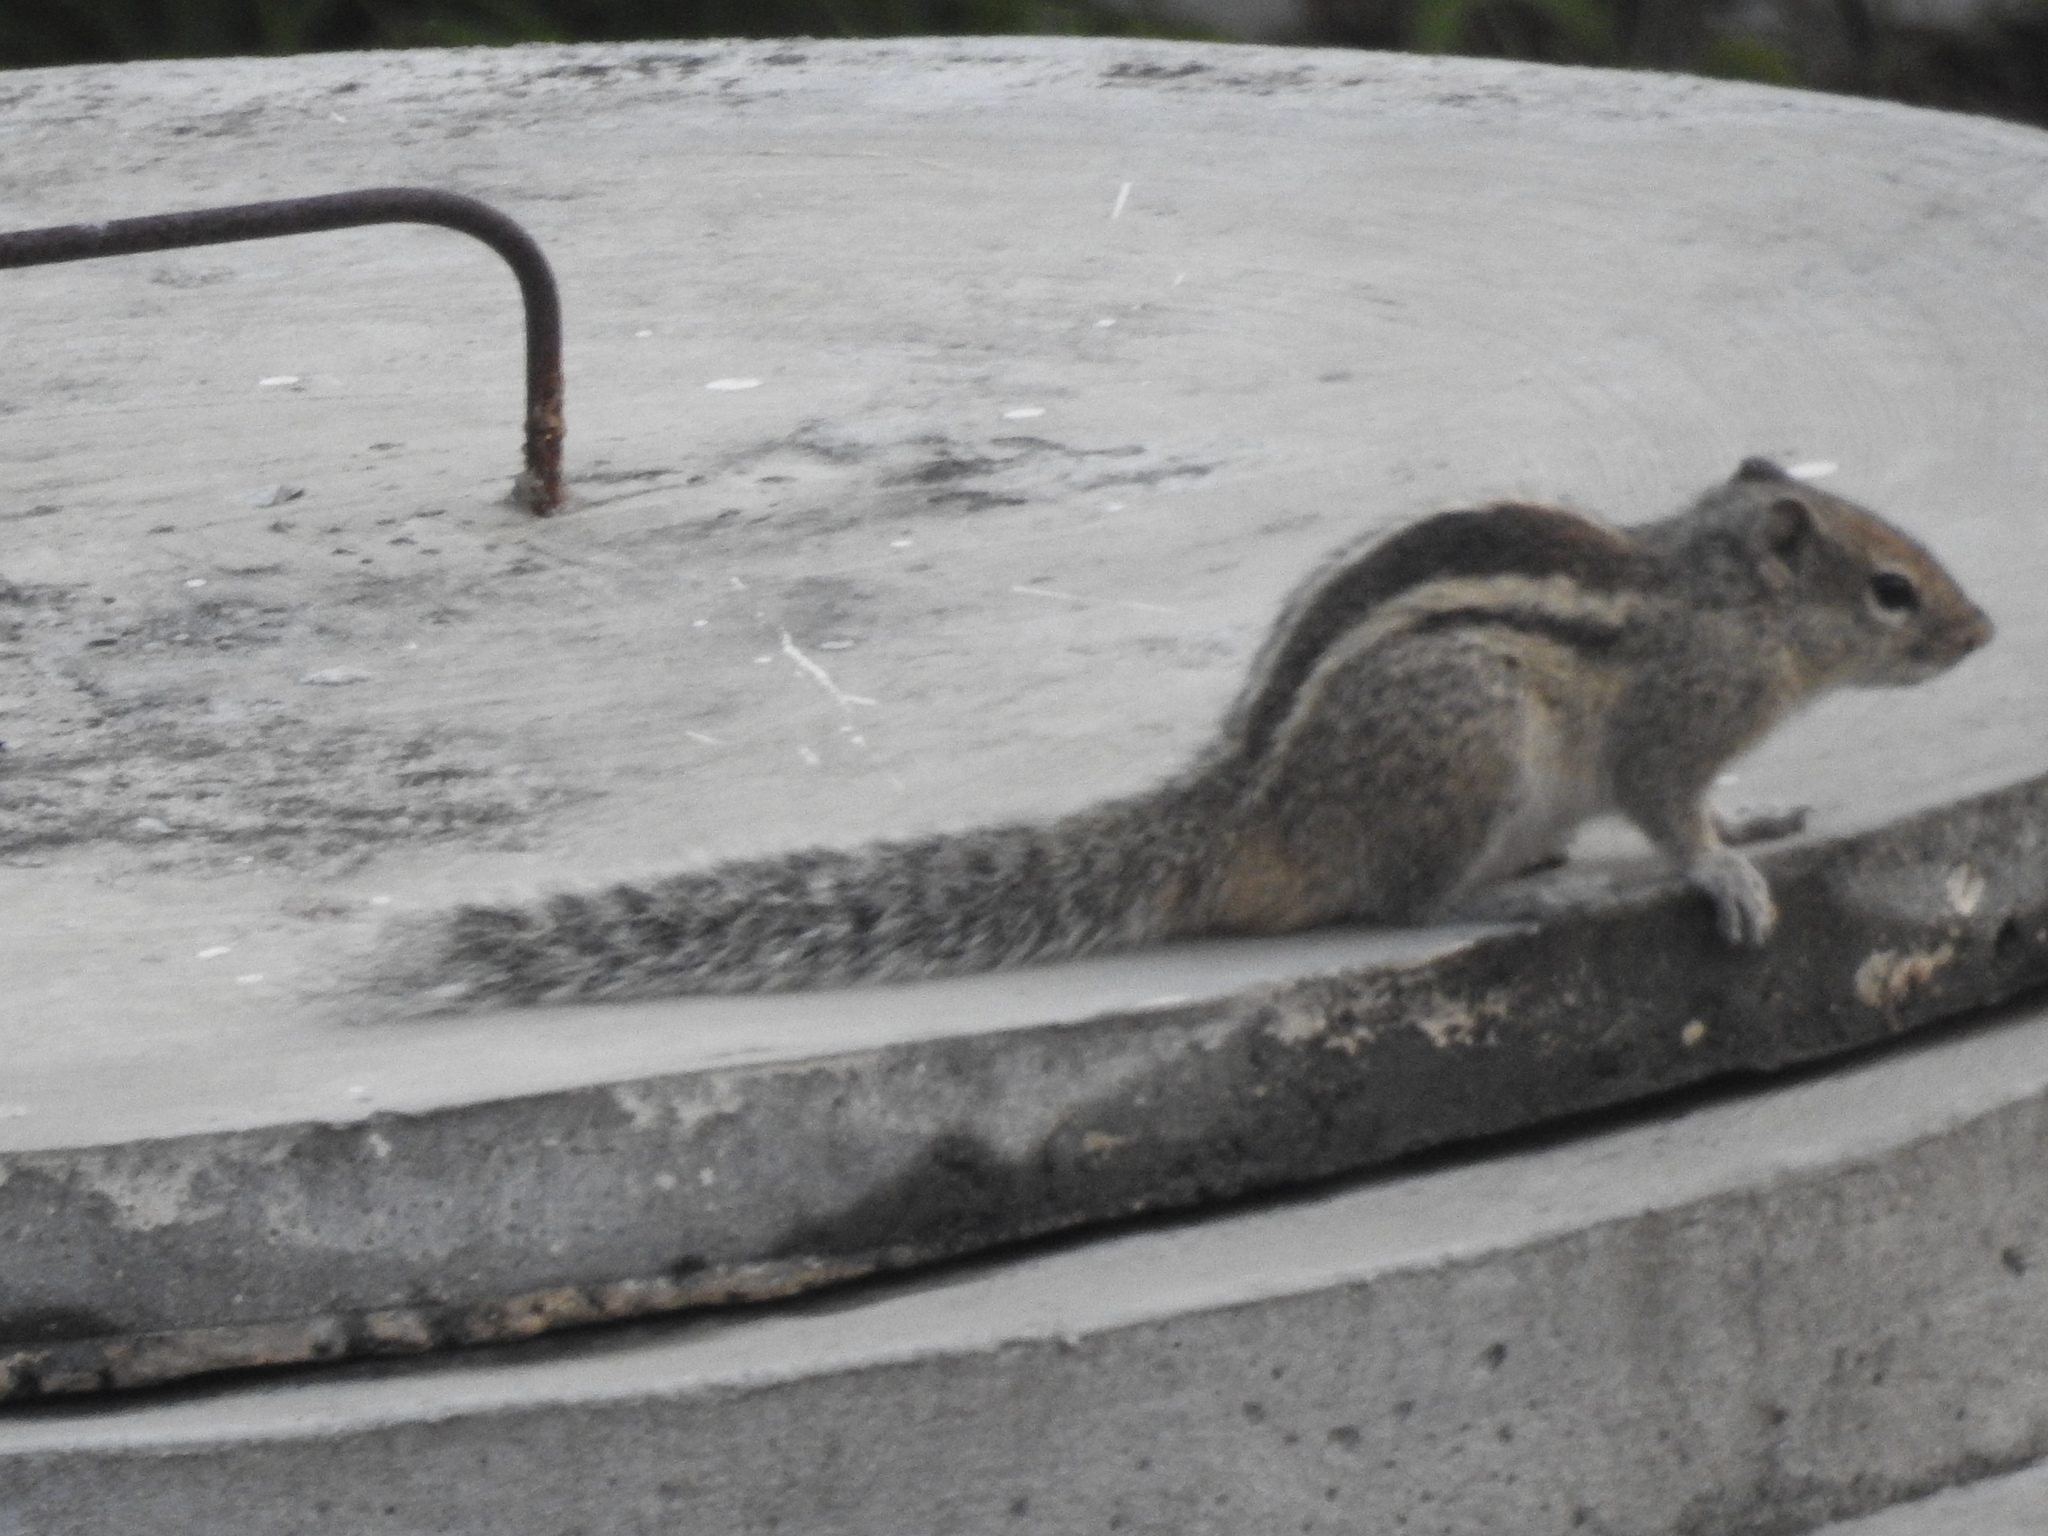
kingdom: Animalia
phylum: Chordata
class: Mammalia
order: Rodentia
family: Sciuridae
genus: Funambulus
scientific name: Funambulus palmarum
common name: Indian palm squirrel
